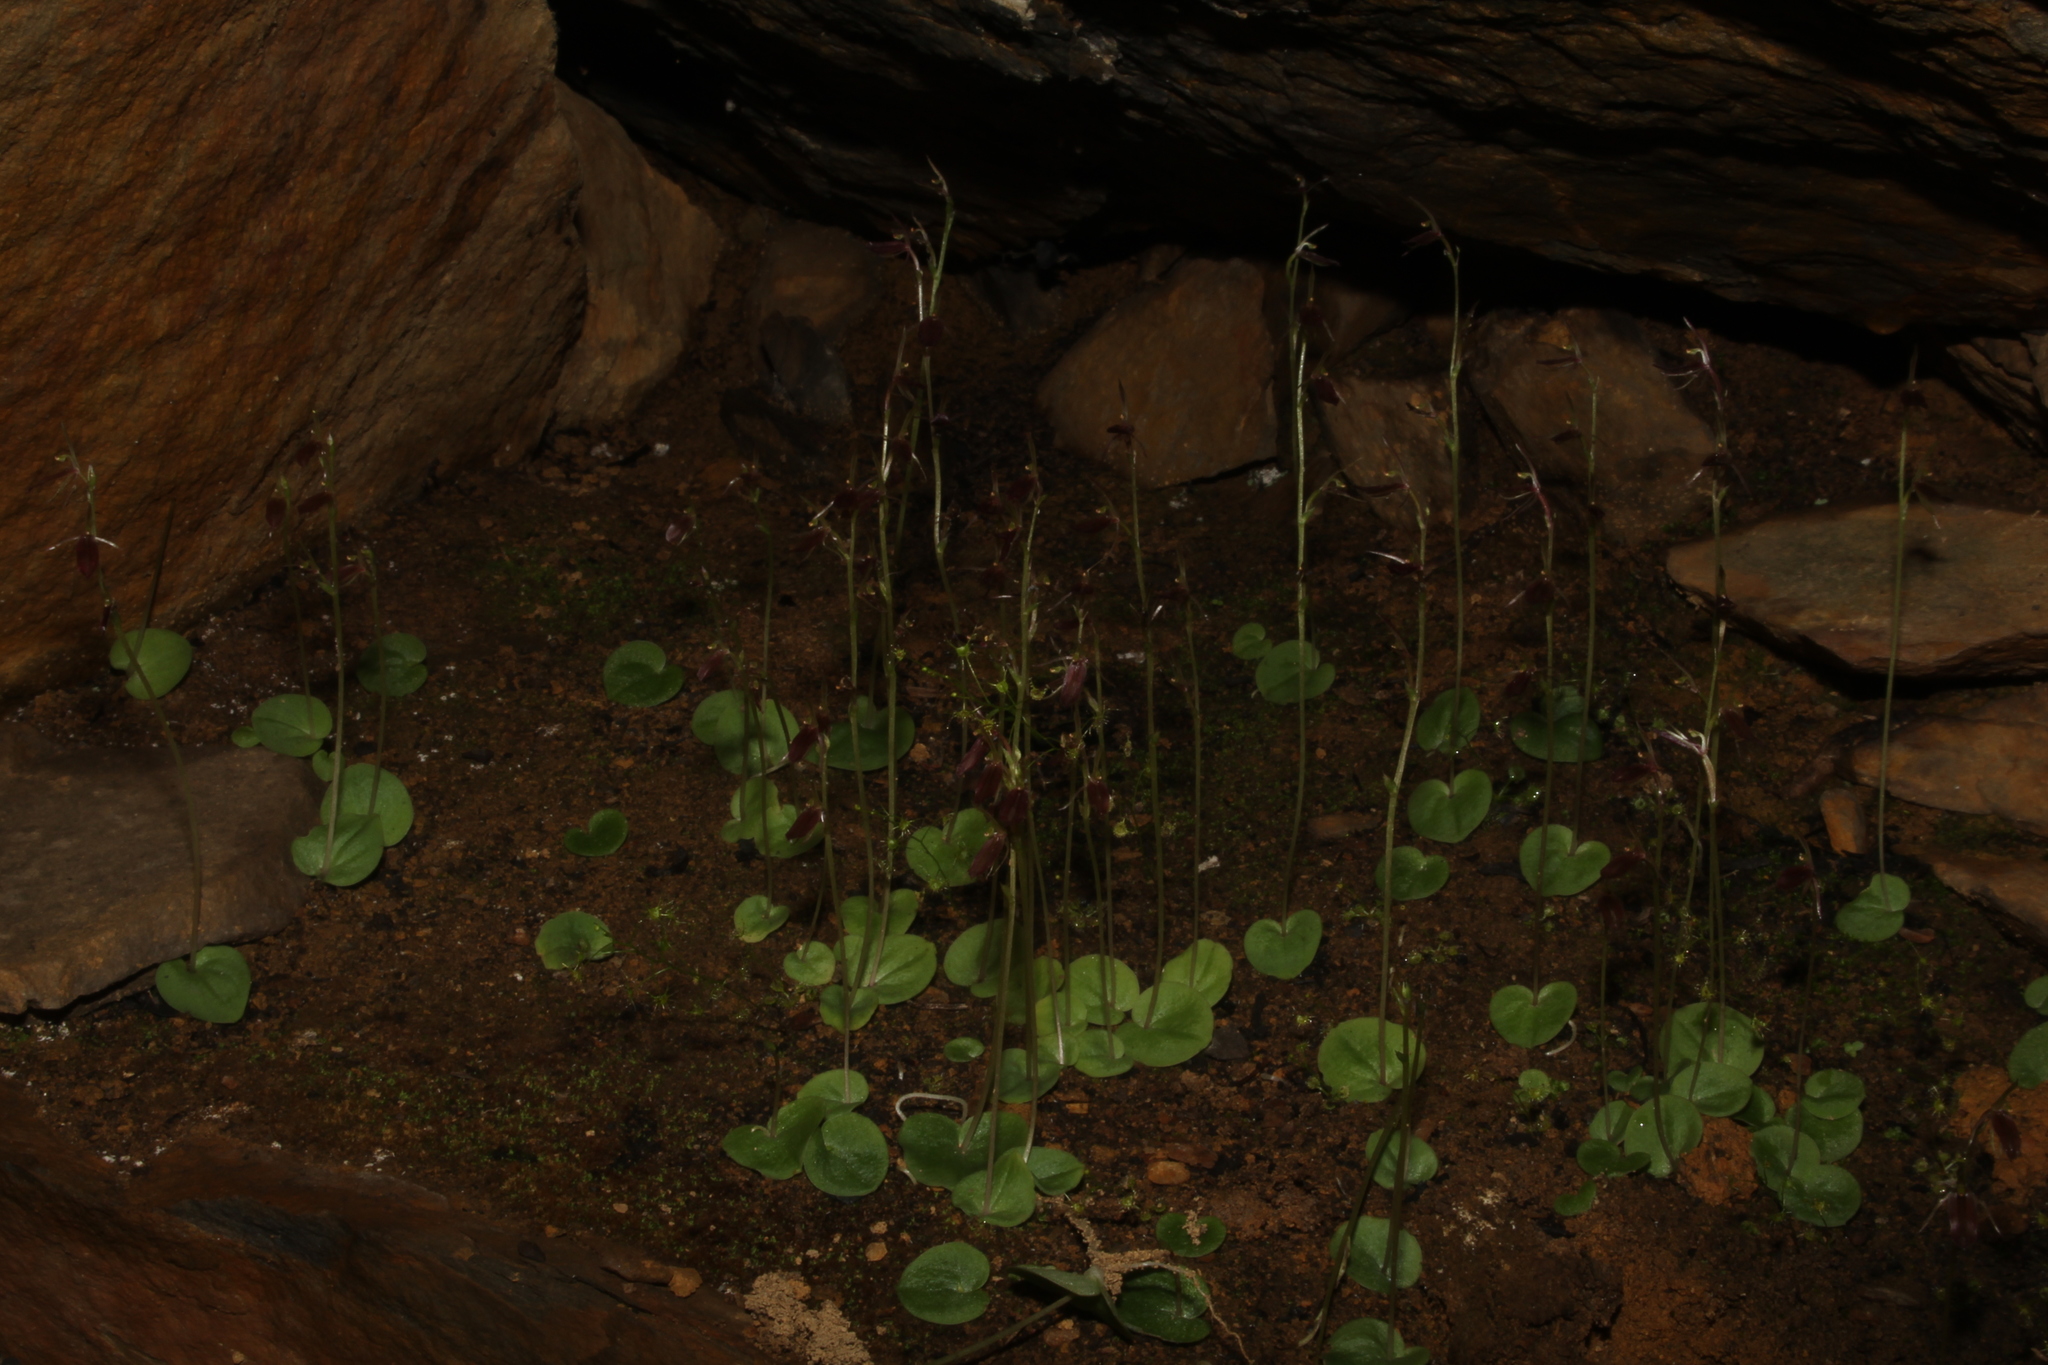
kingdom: Plantae
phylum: Tracheophyta
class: Liliopsida
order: Asparagales
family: Orchidaceae
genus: Cyrtostylis
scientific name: Cyrtostylis robusta
